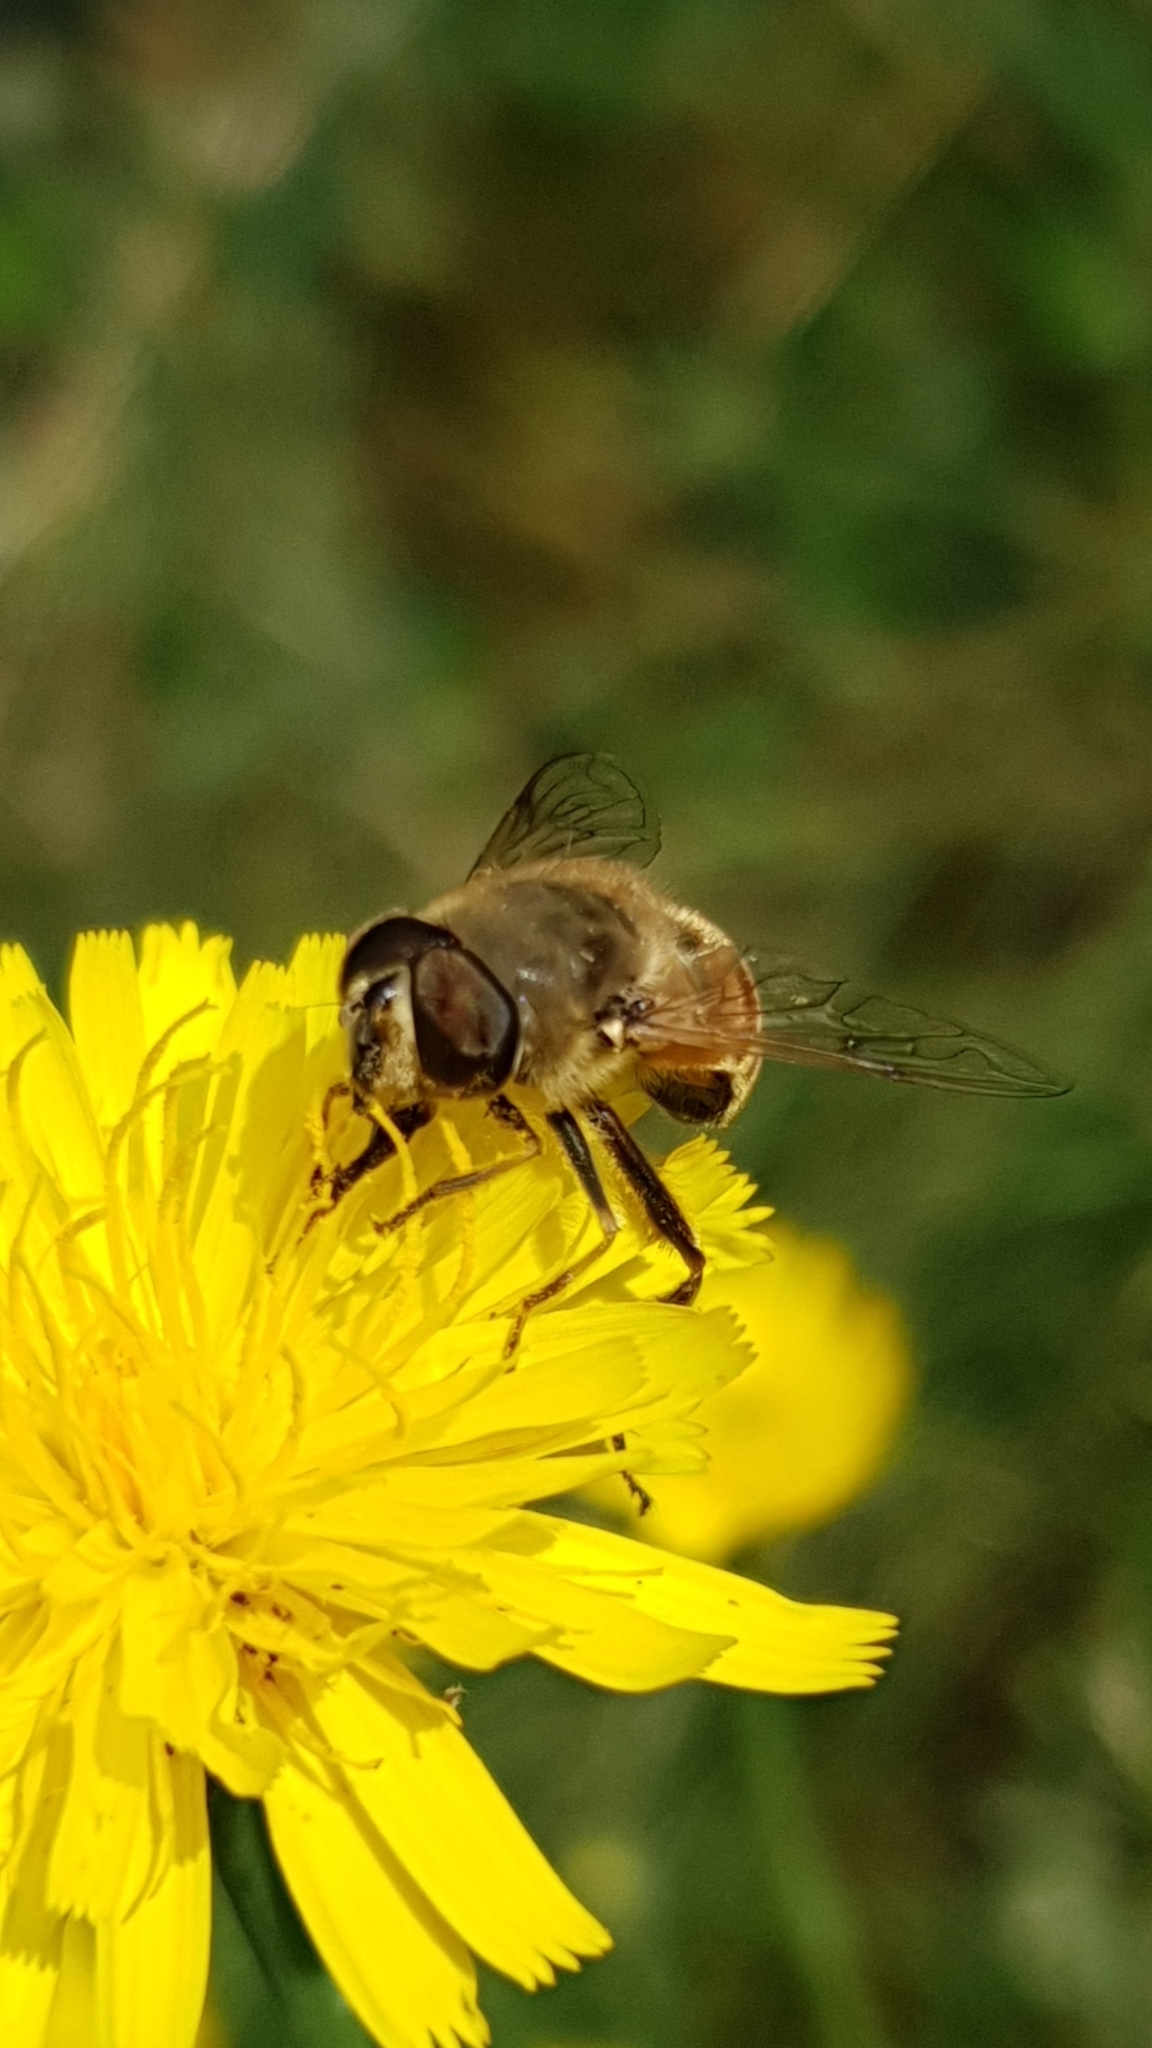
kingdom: Animalia
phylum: Arthropoda
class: Insecta
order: Diptera
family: Syrphidae
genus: Eristalis
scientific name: Eristalis tenax
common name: Drone fly
